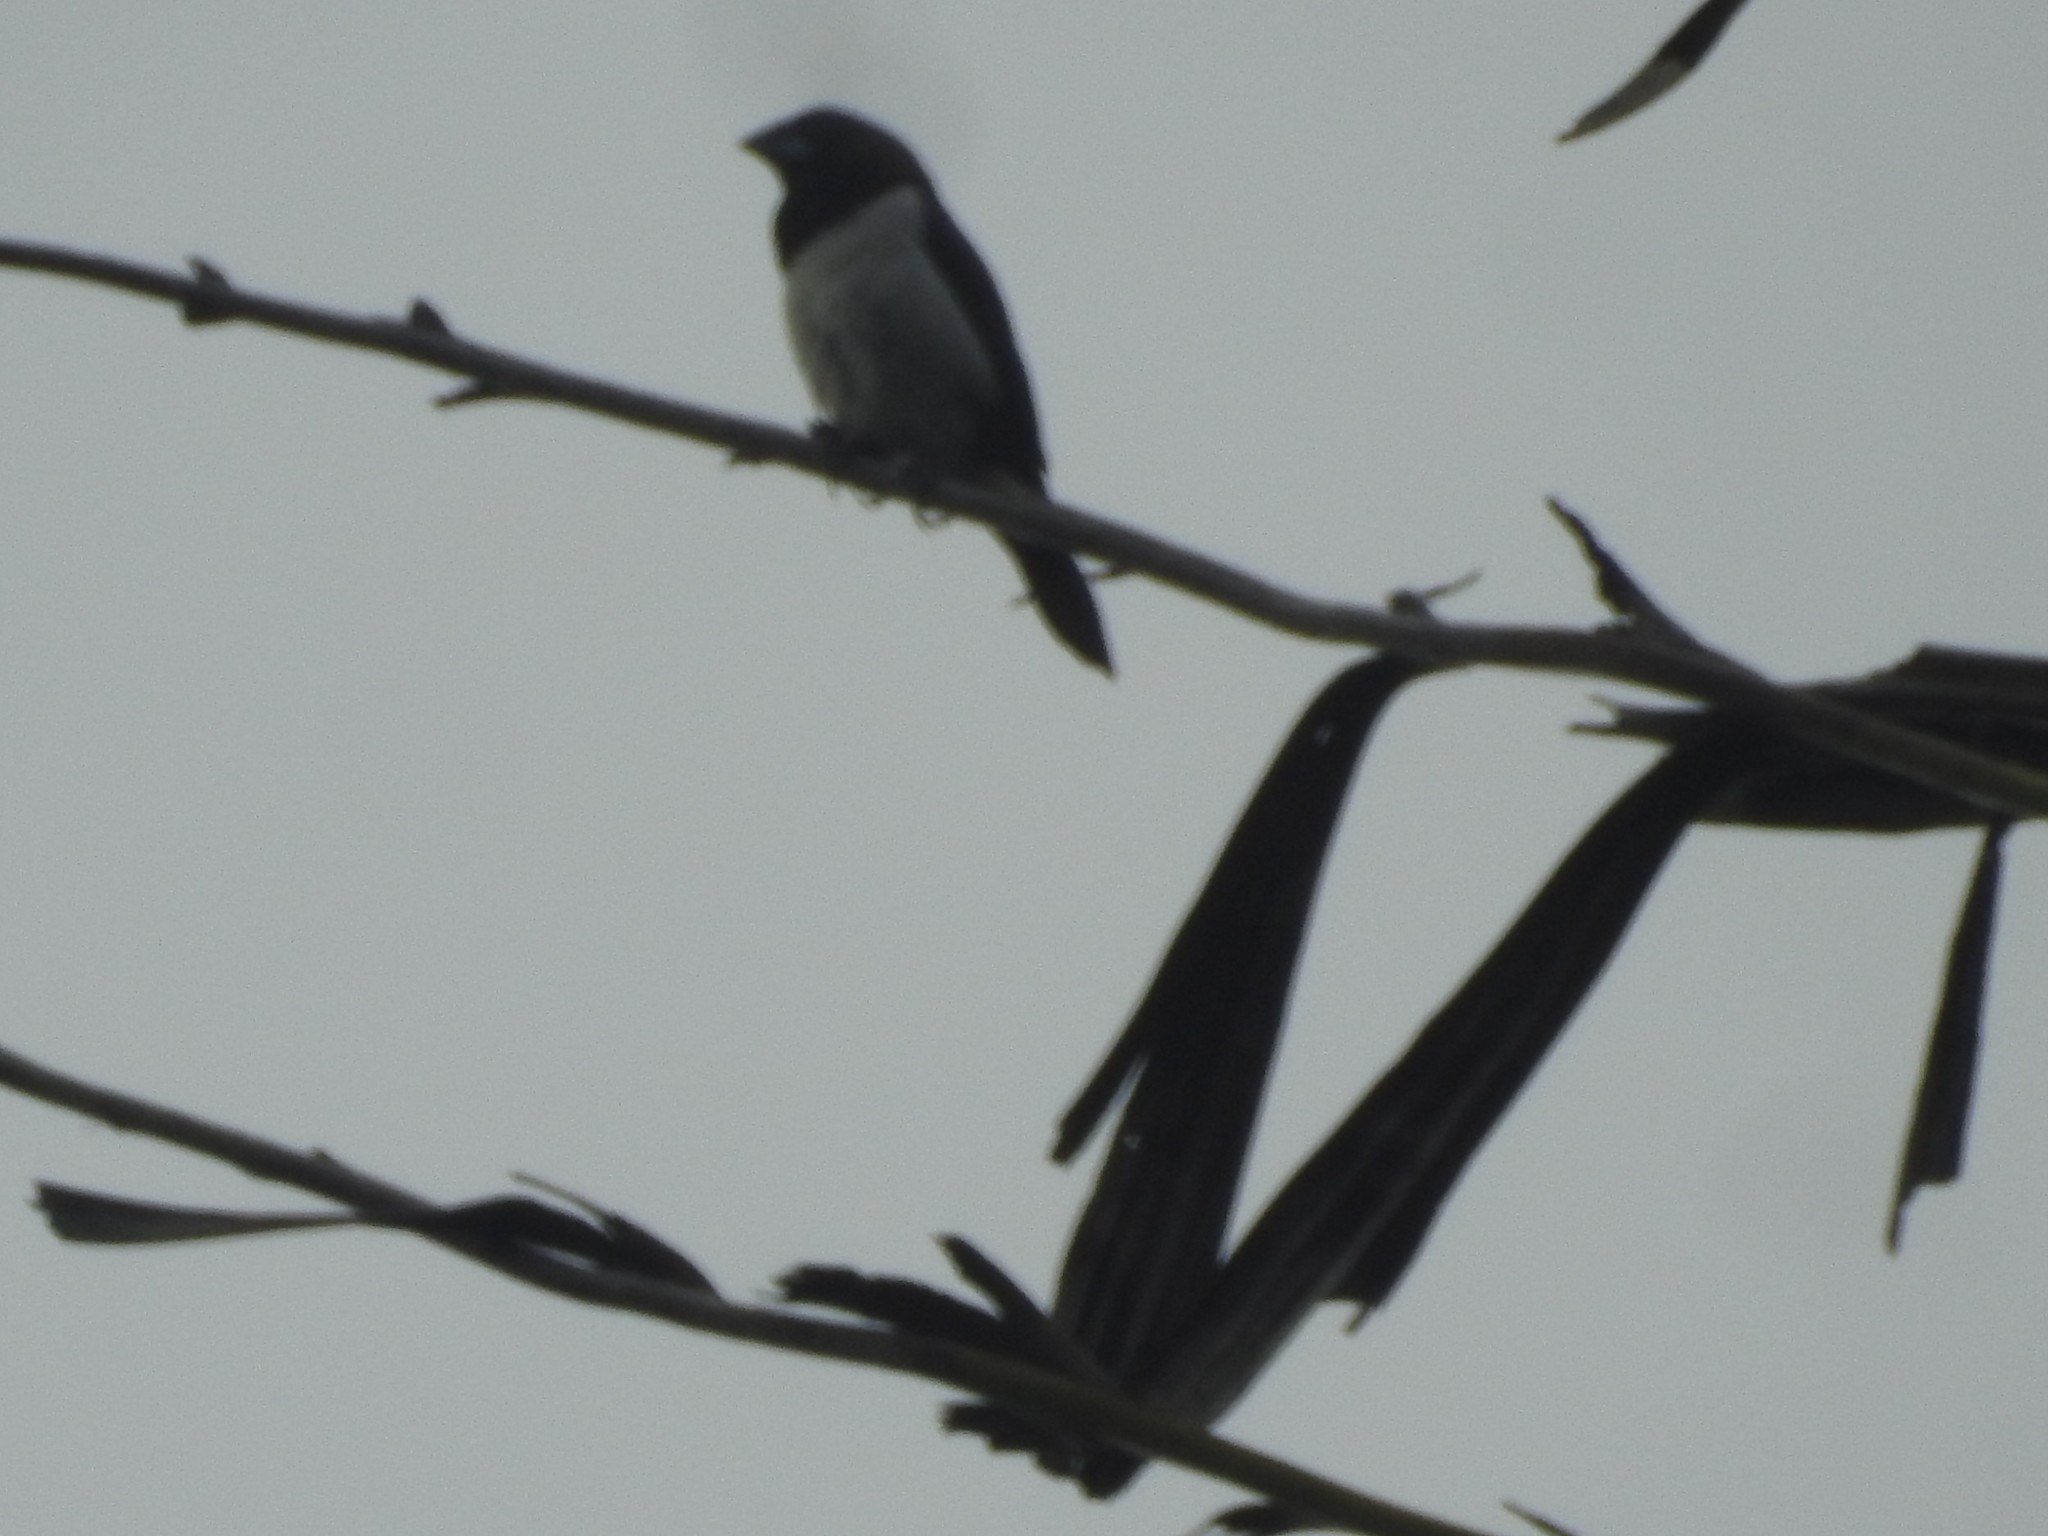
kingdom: Animalia
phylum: Chordata
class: Aves
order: Passeriformes
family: Estrildidae
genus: Lonchura
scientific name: Lonchura striata
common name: White-rumped munia
